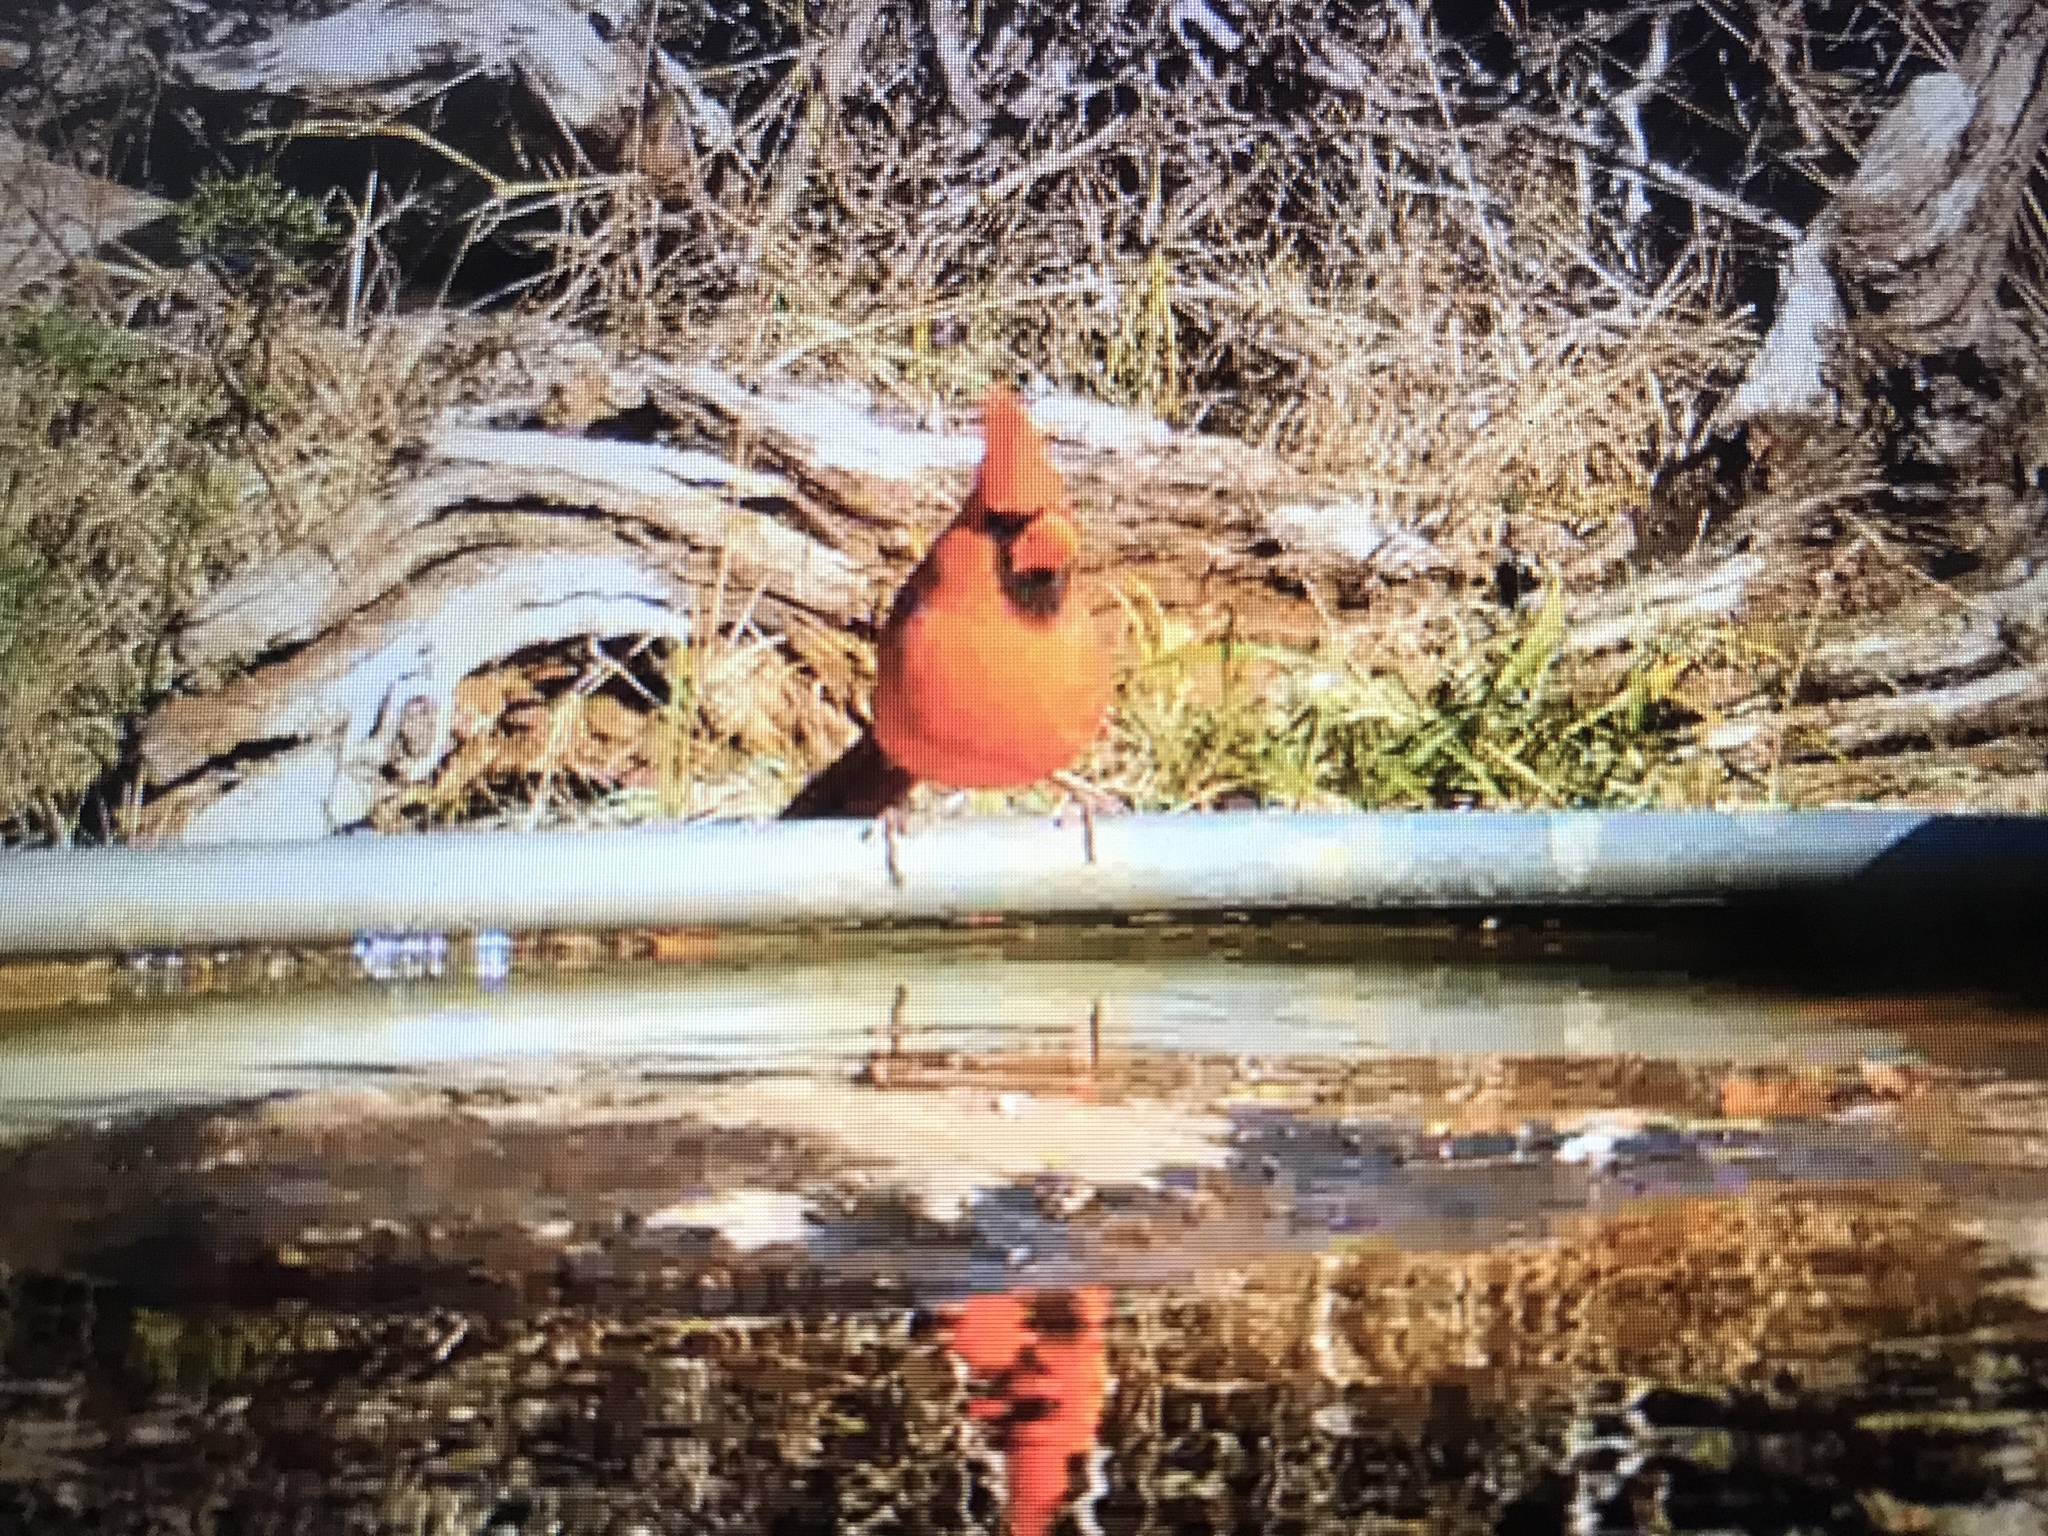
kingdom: Animalia
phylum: Chordata
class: Aves
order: Passeriformes
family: Cardinalidae
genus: Cardinalis
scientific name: Cardinalis cardinalis
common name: Northern cardinal
